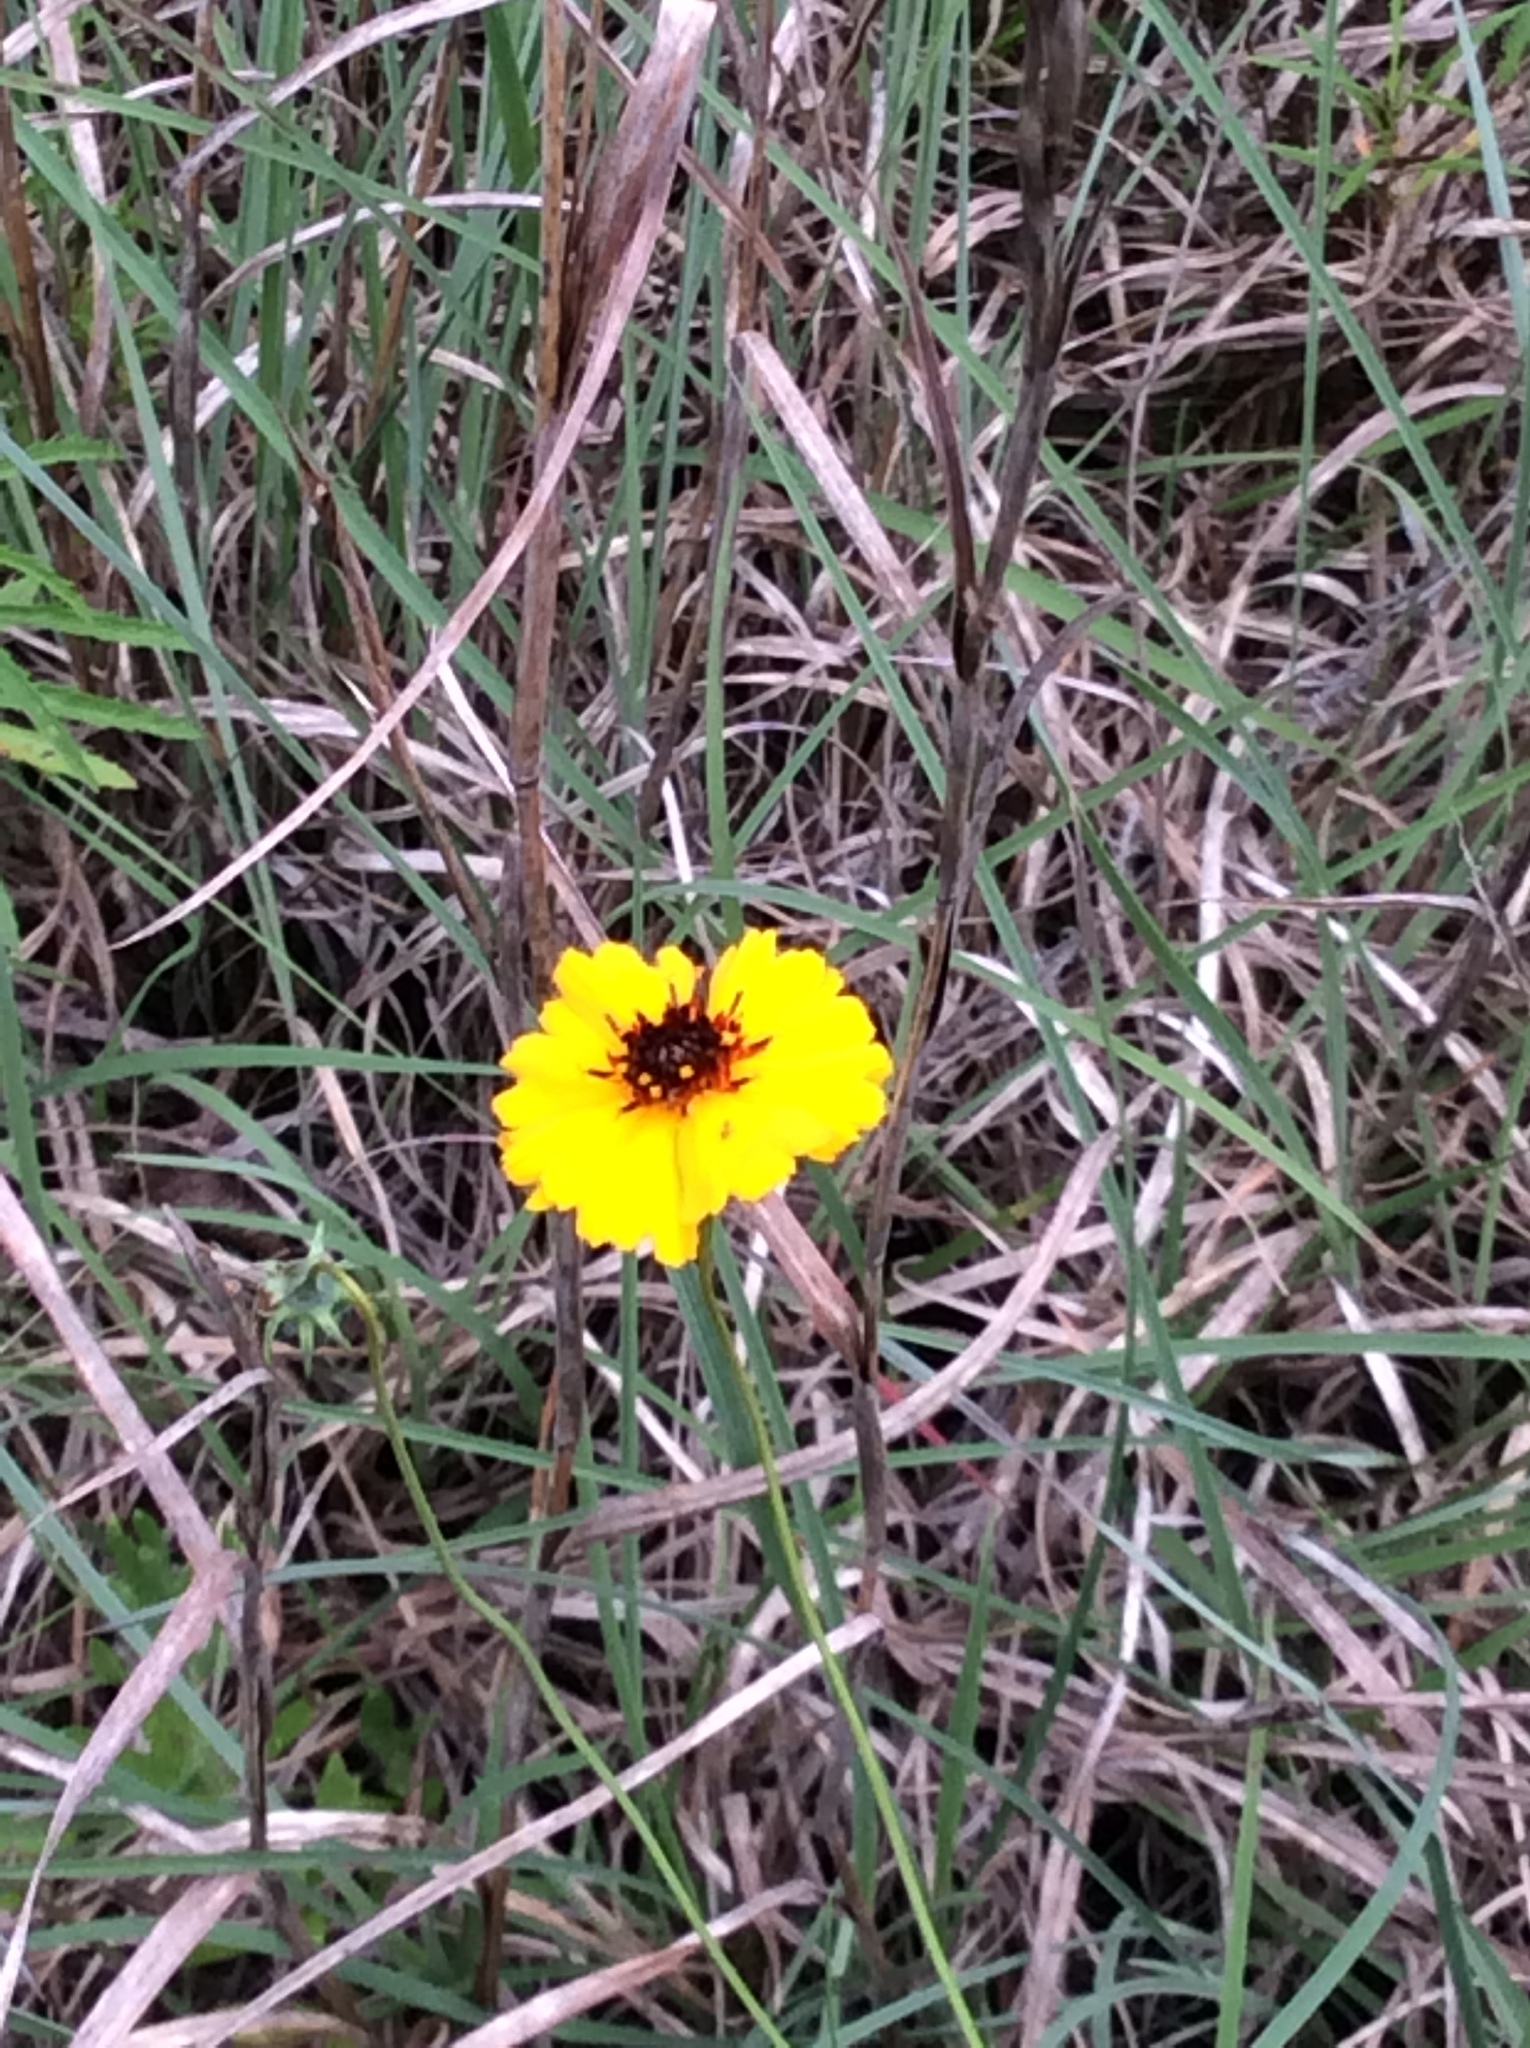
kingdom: Plantae
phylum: Tracheophyta
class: Magnoliopsida
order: Asterales
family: Asteraceae
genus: Thelesperma
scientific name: Thelesperma filifolium
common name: Stiff greenthread
